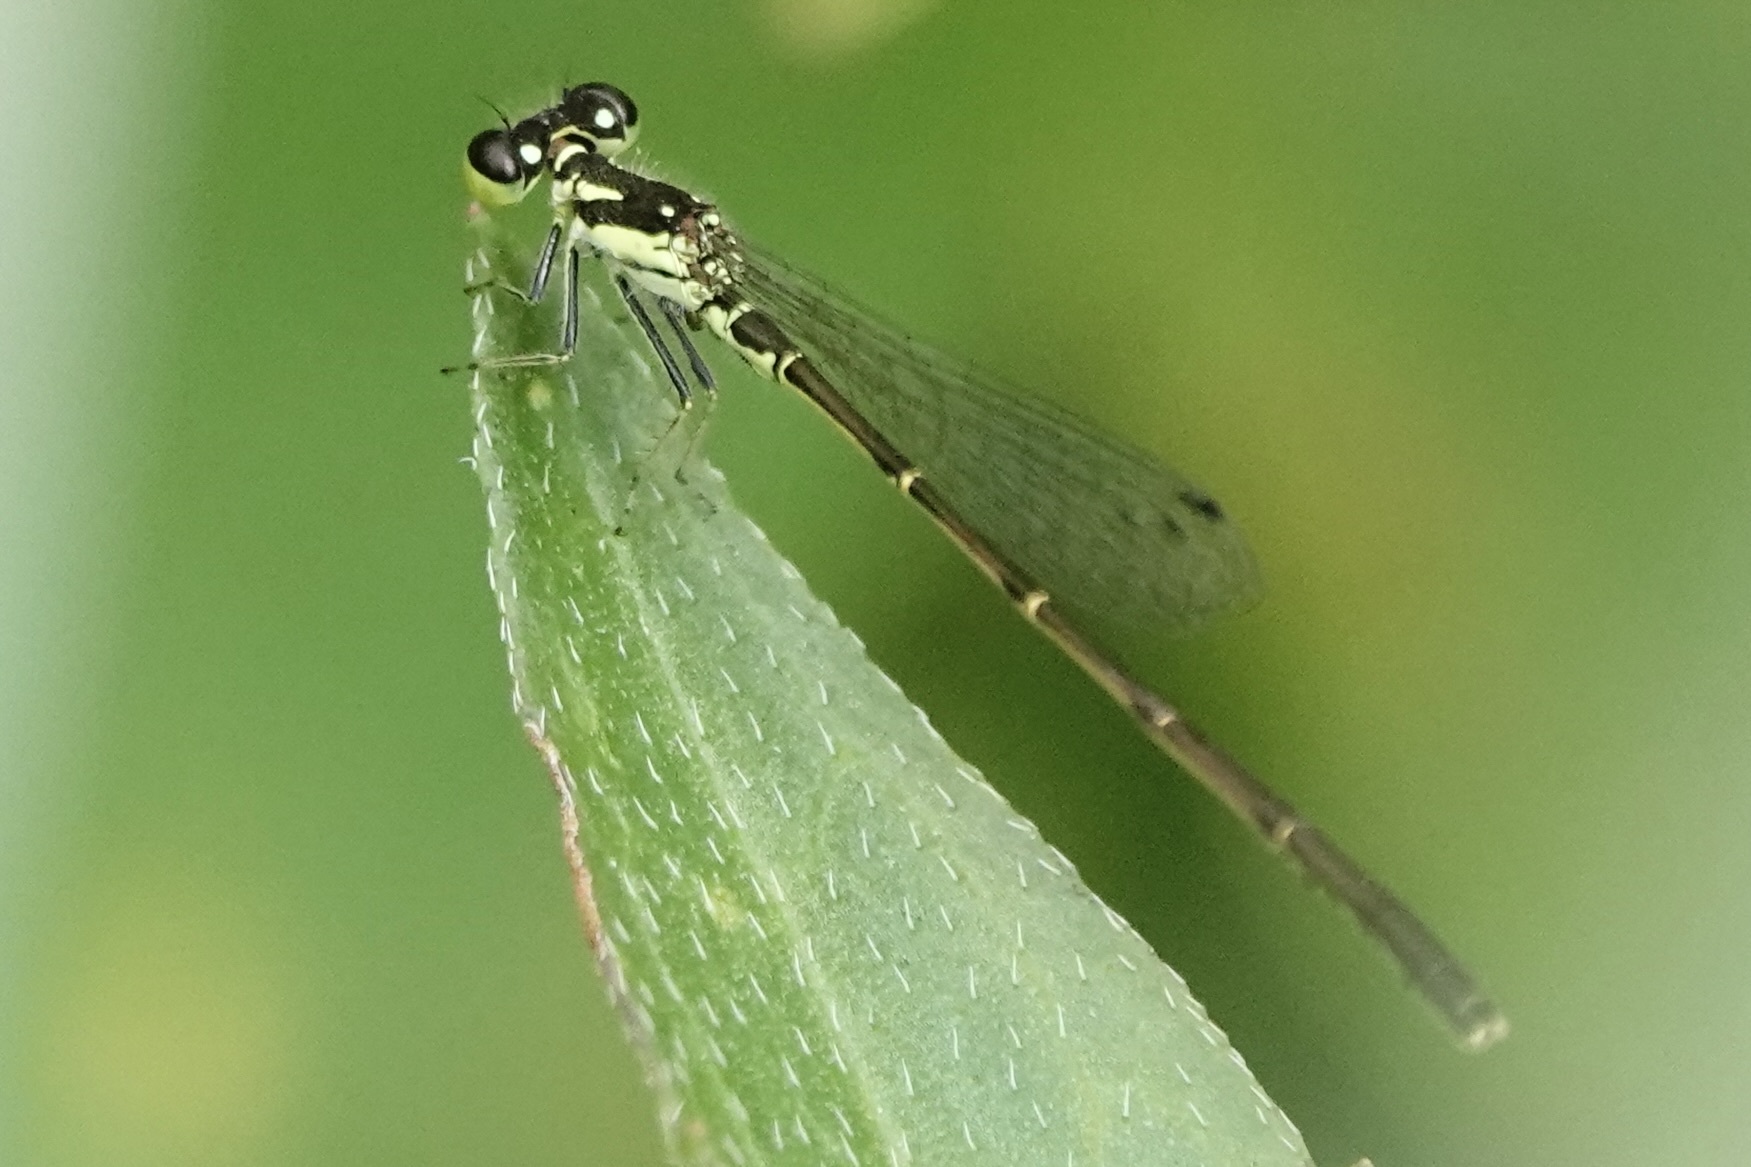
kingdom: Animalia
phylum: Arthropoda
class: Insecta
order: Odonata
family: Coenagrionidae
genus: Ischnura
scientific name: Ischnura posita
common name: Fragile forktail
